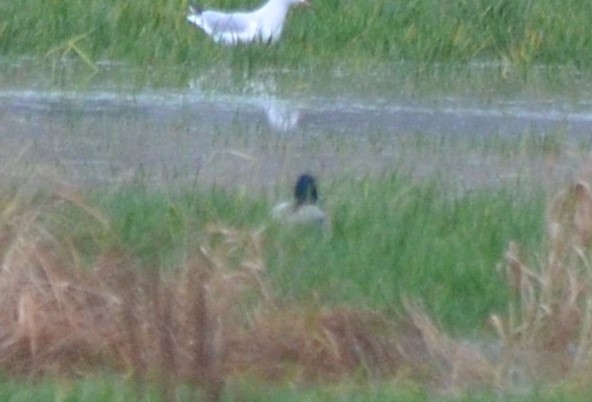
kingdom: Animalia
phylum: Chordata
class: Aves
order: Anseriformes
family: Anatidae
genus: Anas
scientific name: Anas platyrhynchos
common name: Mallard
